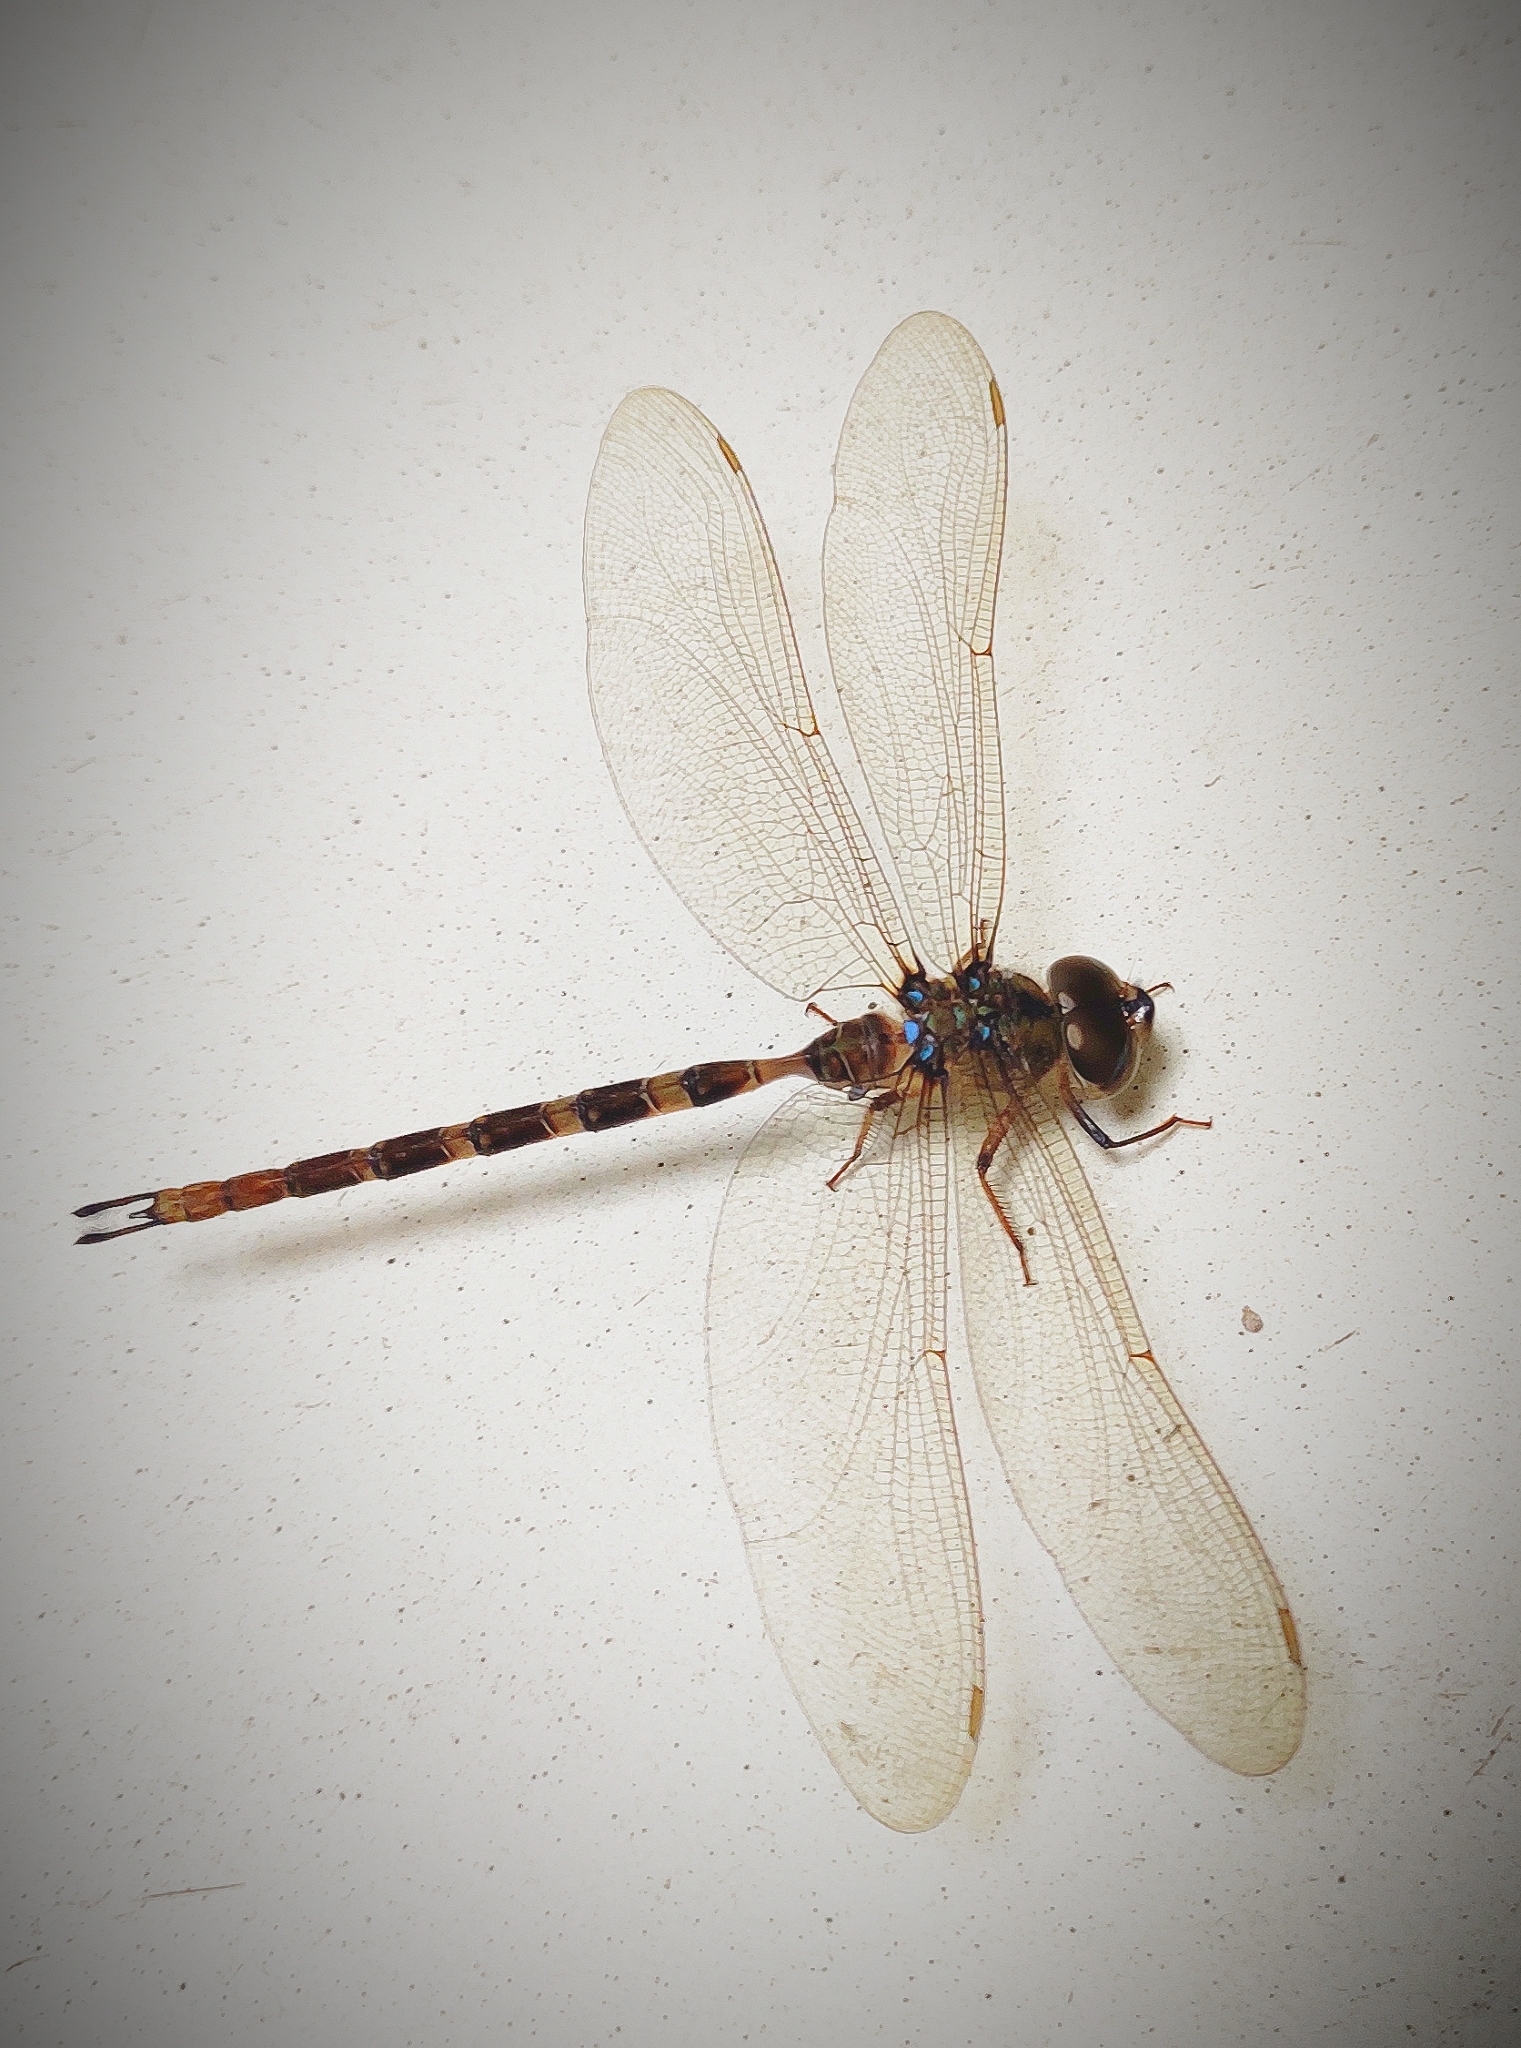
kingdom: Animalia
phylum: Arthropoda
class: Insecta
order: Odonata
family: Aeshnidae
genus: Gynacantha
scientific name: Gynacantha dravida
